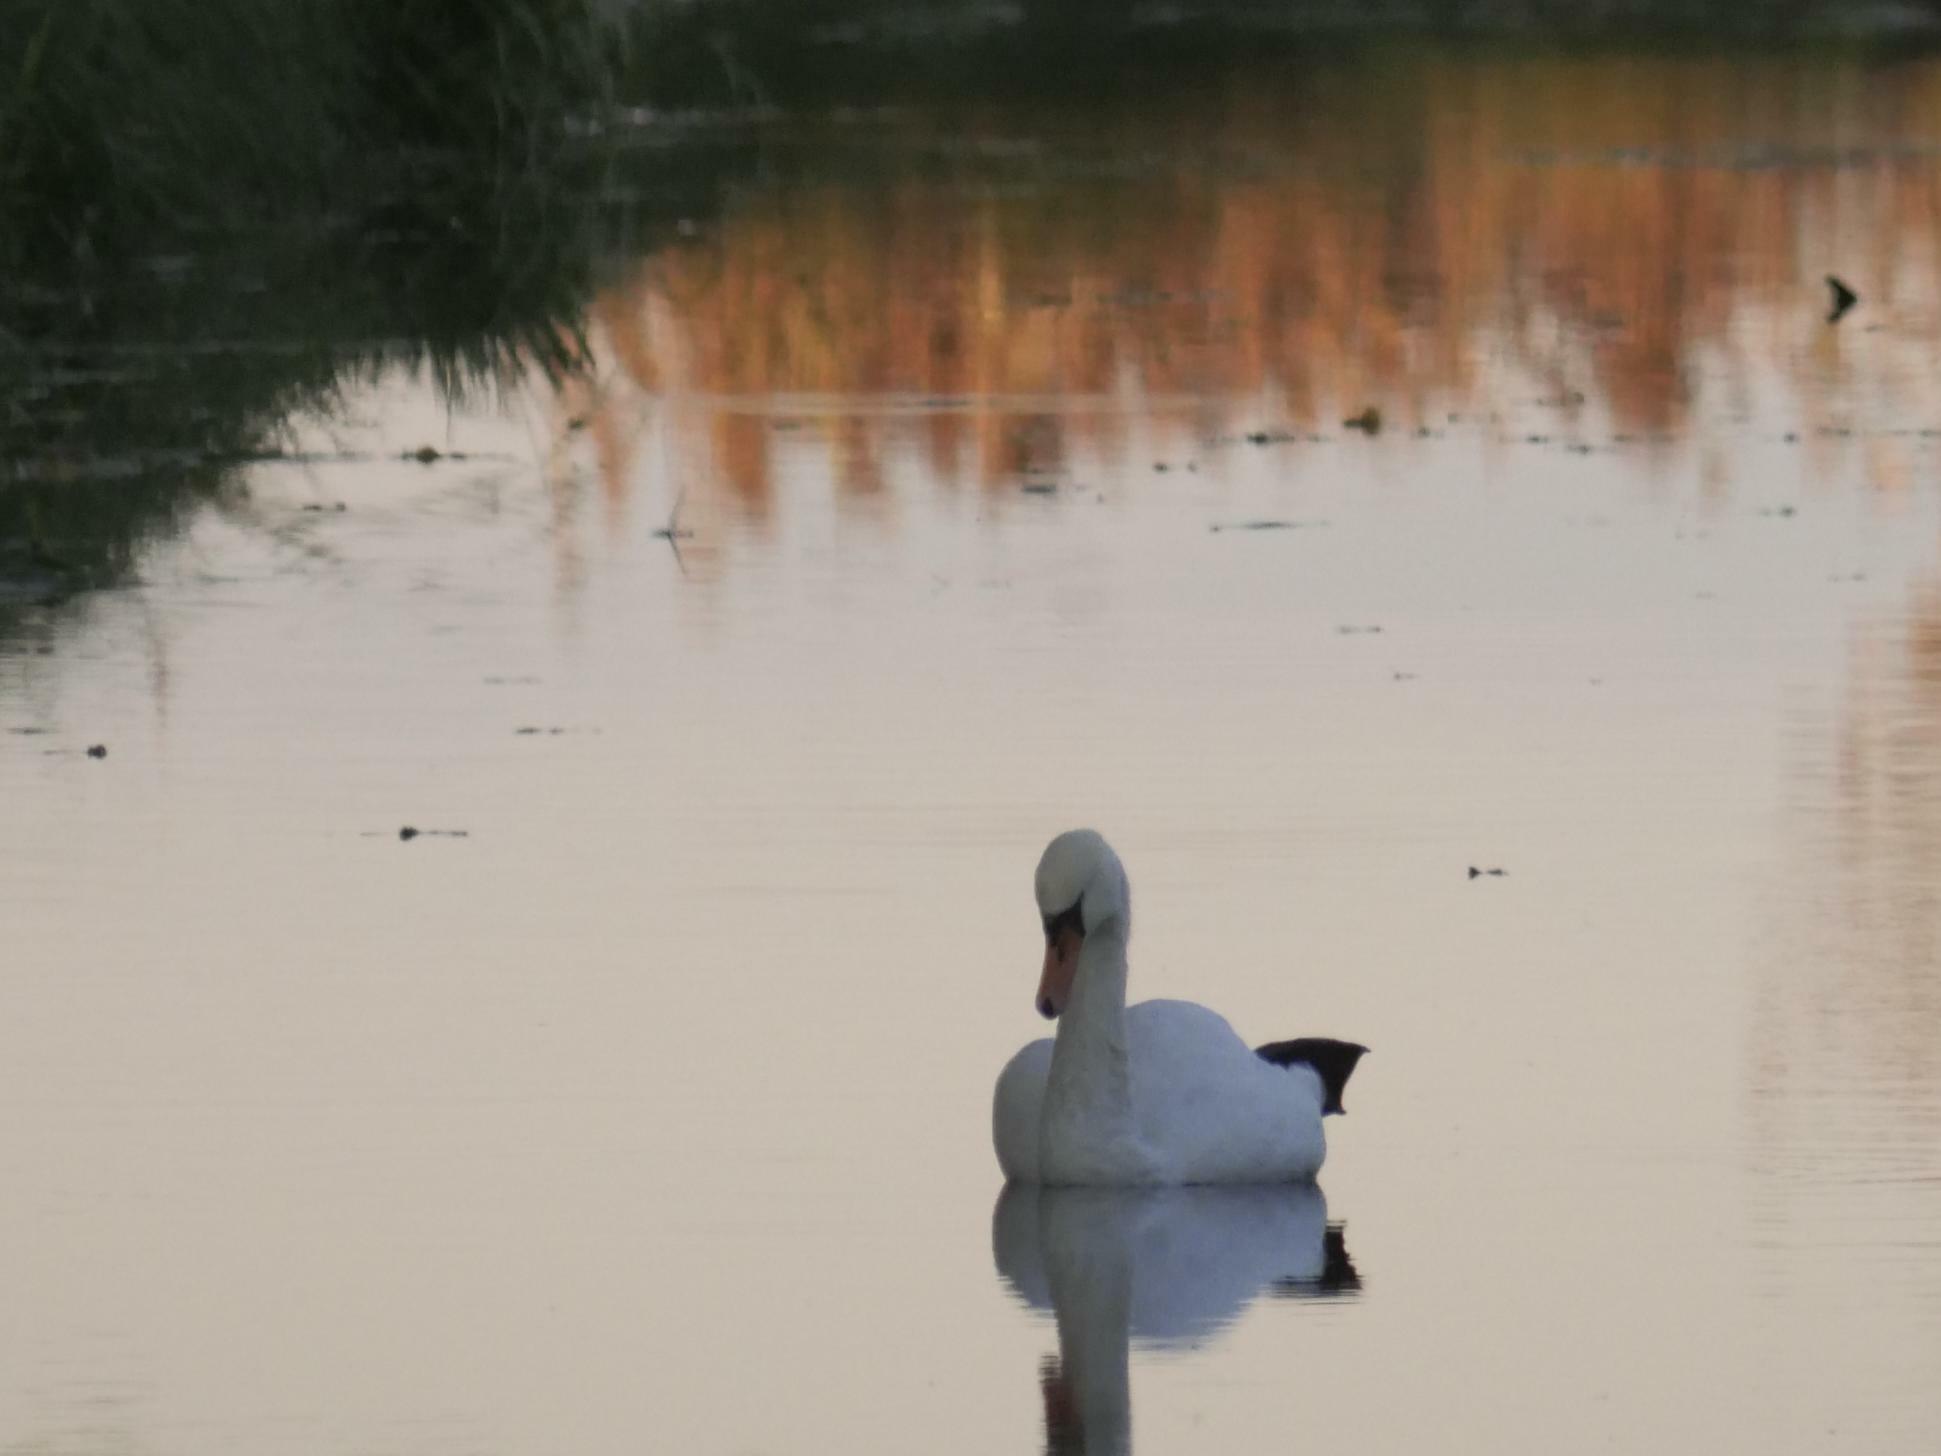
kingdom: Animalia
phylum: Chordata
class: Aves
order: Anseriformes
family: Anatidae
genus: Cygnus
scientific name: Cygnus olor
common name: Mute swan
